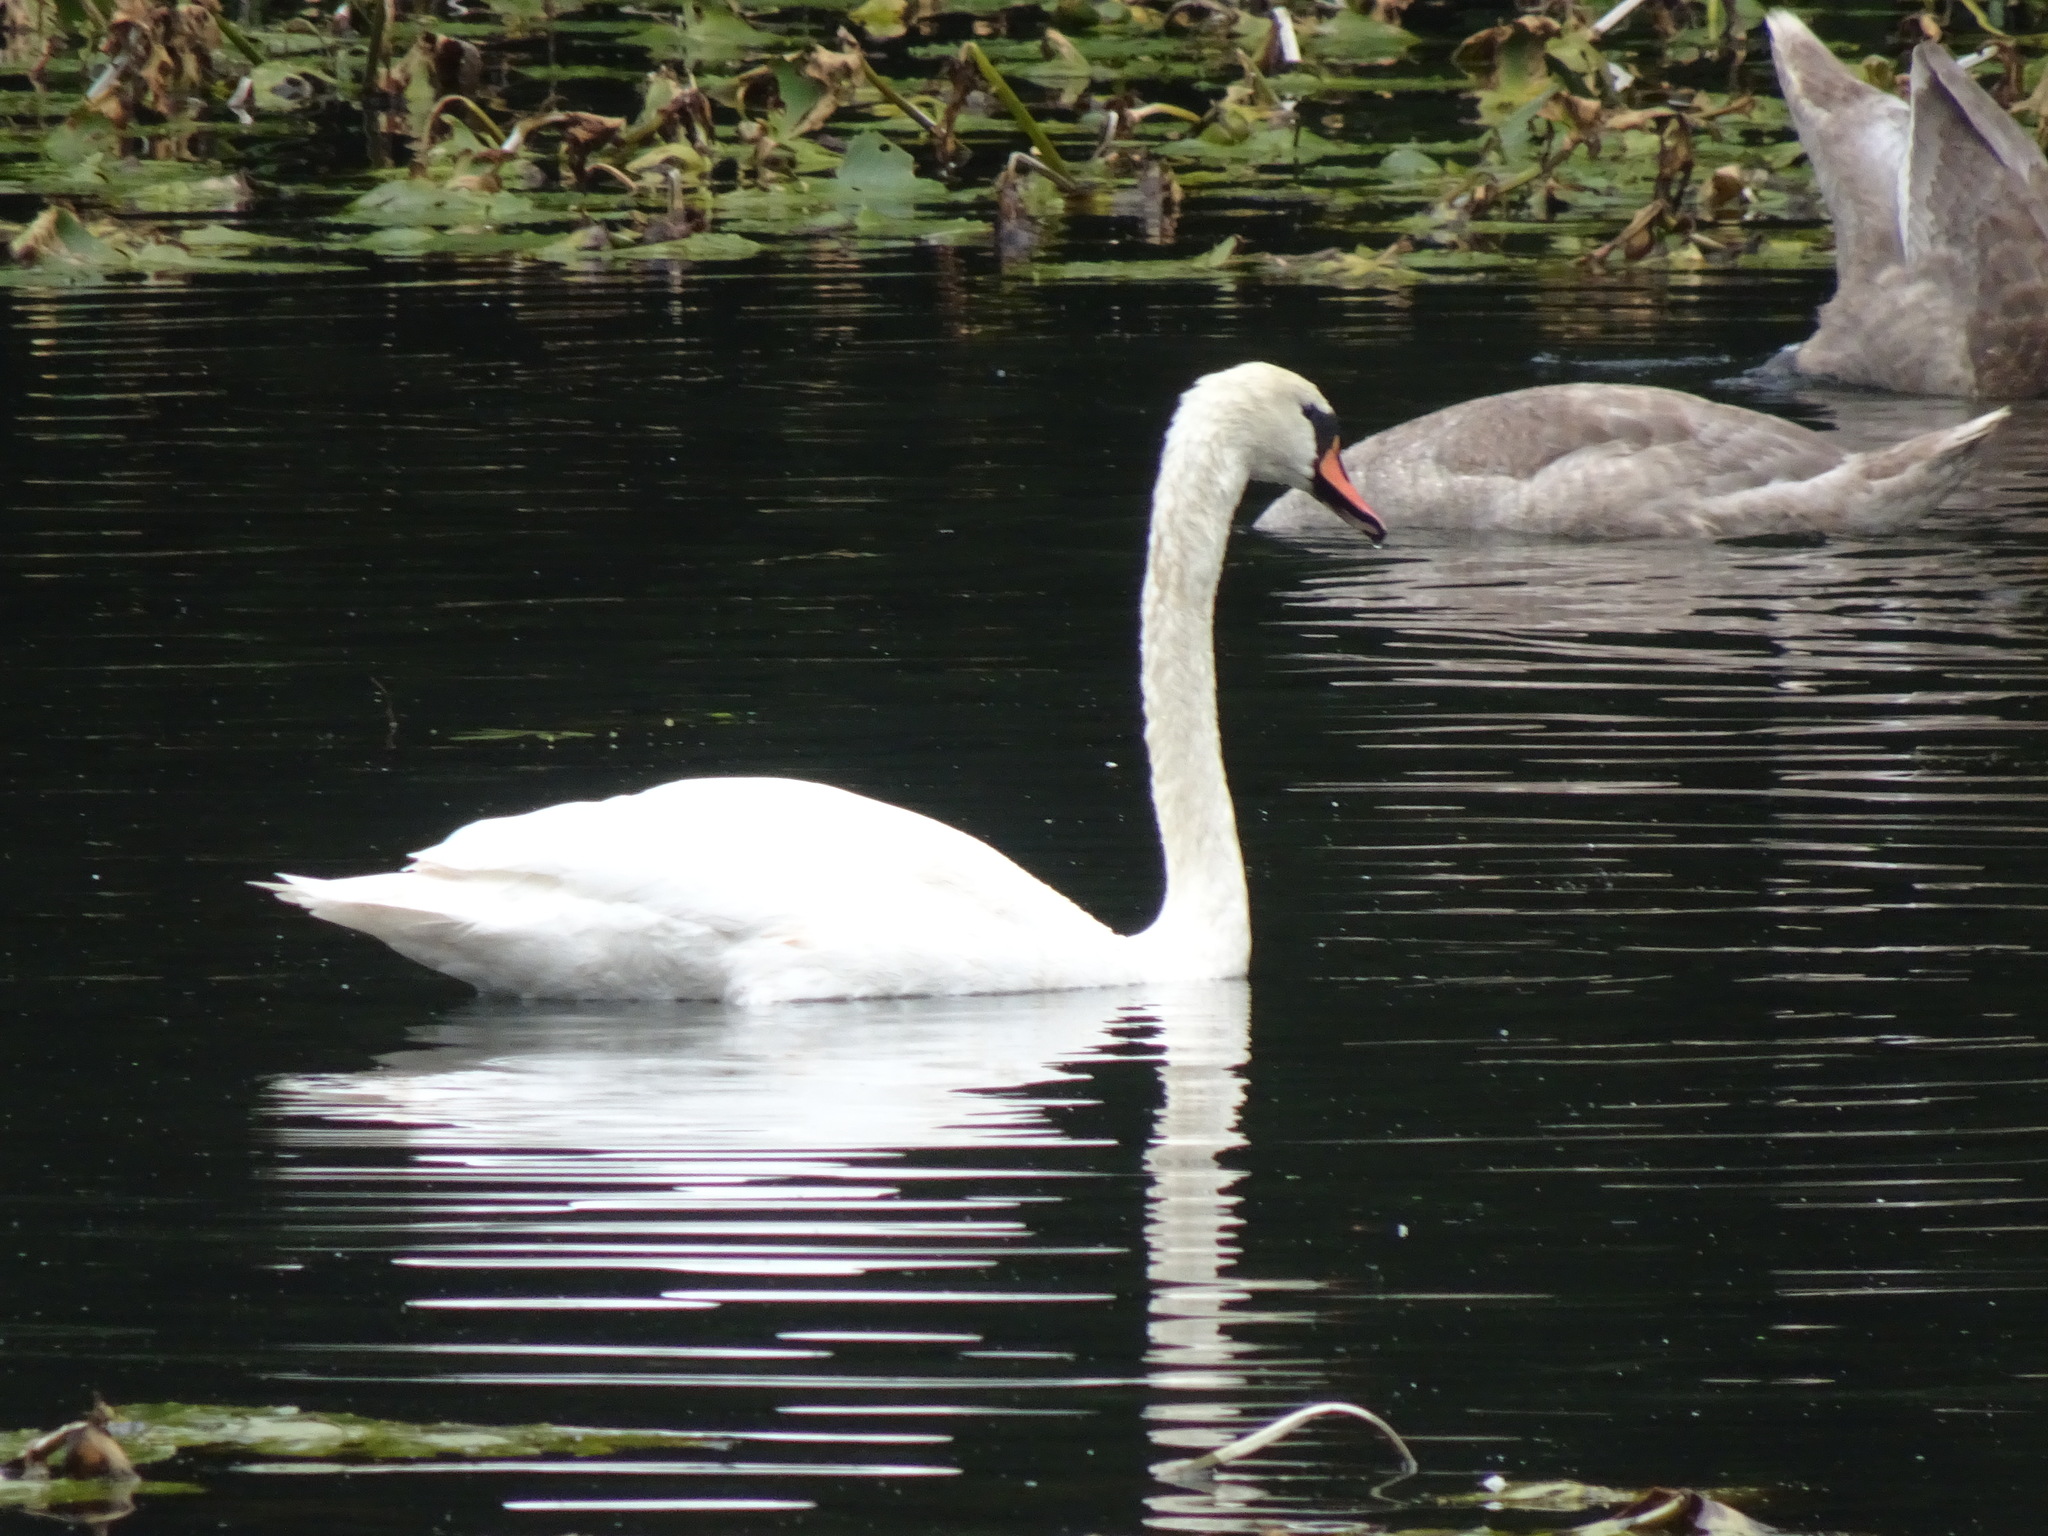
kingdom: Animalia
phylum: Chordata
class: Aves
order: Anseriformes
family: Anatidae
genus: Cygnus
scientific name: Cygnus olor
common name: Mute swan
